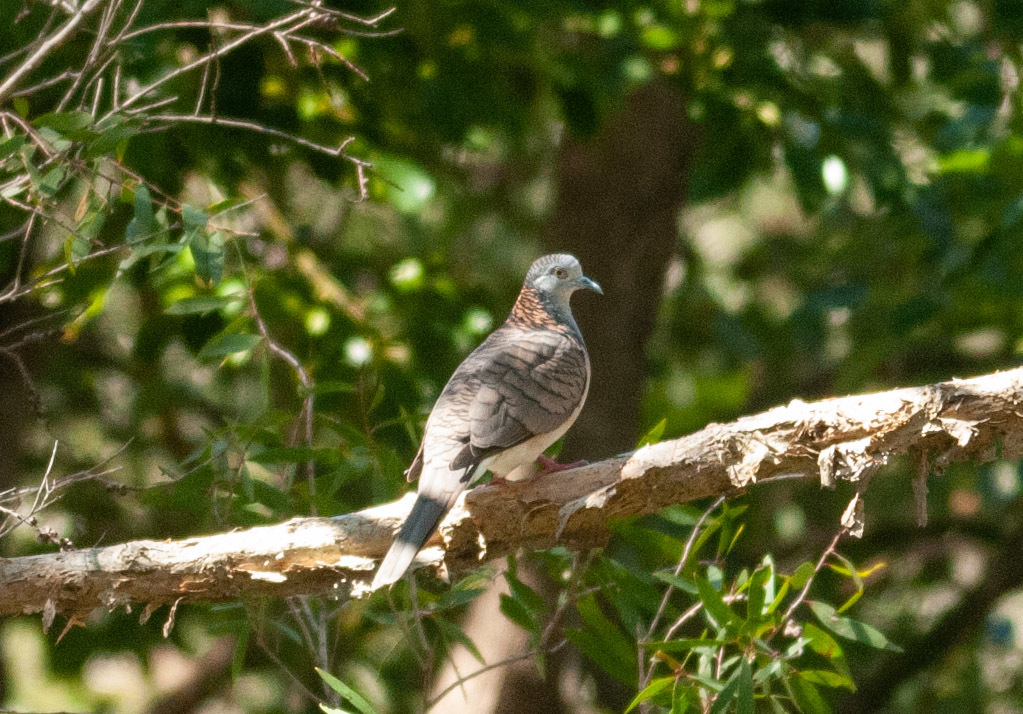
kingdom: Animalia
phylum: Chordata
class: Aves
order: Columbiformes
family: Columbidae
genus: Geopelia
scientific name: Geopelia humeralis
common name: Bar-shouldered dove
